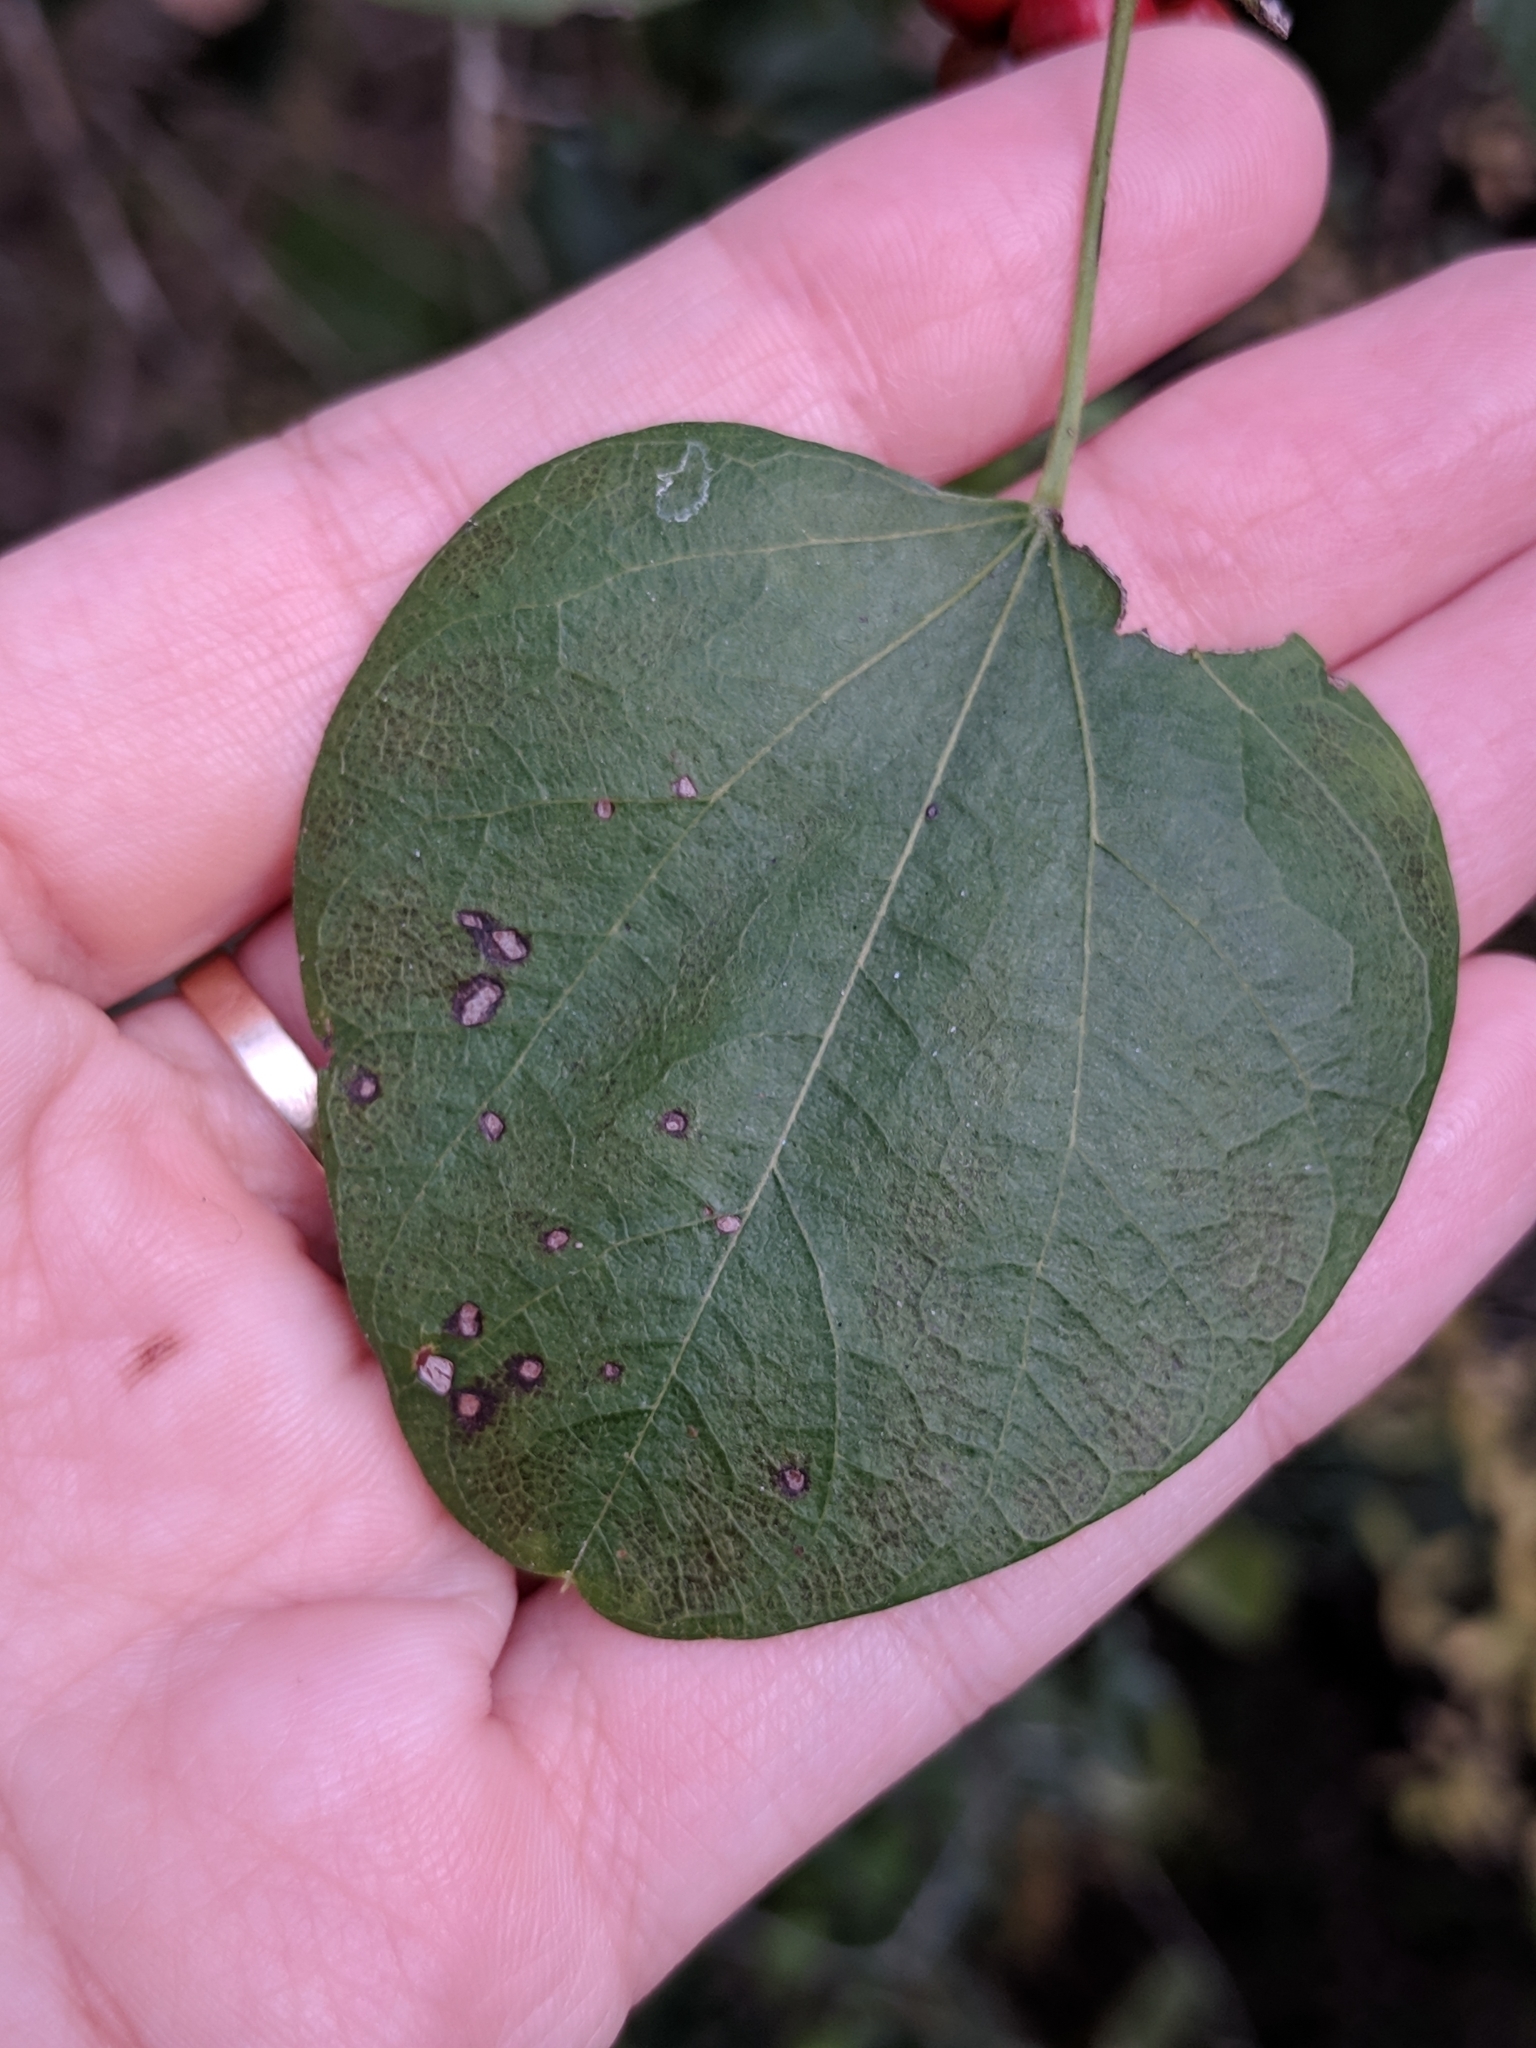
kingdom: Plantae
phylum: Tracheophyta
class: Magnoliopsida
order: Ranunculales
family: Menispermaceae
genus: Cocculus
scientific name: Cocculus carolinus
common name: Carolina moonseed
